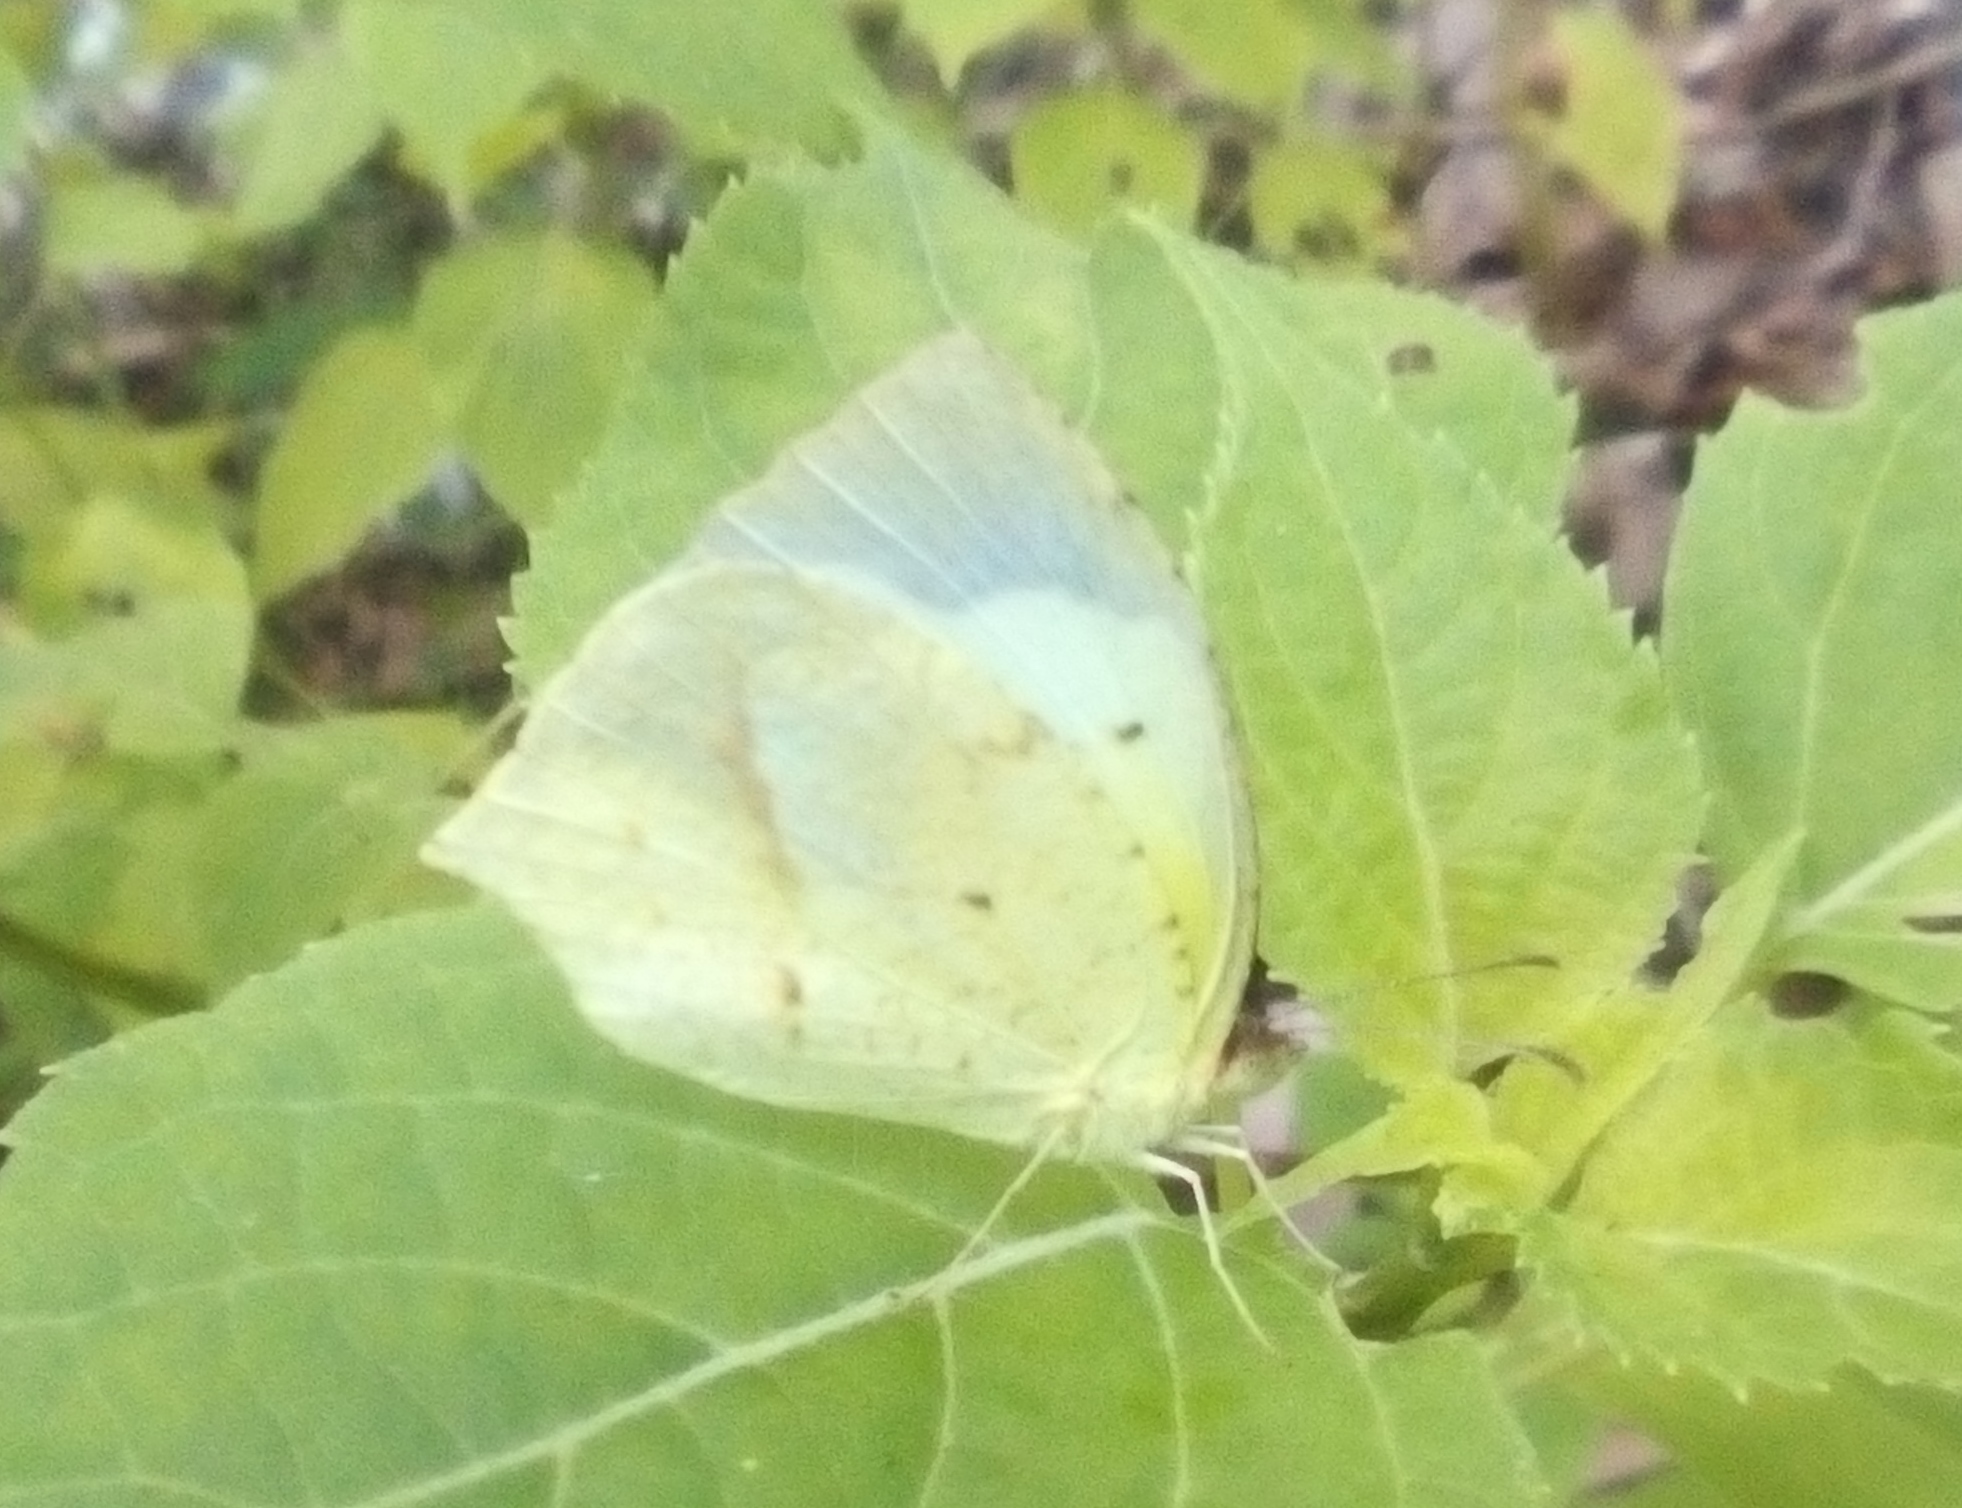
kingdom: Animalia
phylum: Arthropoda
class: Insecta
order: Lepidoptera
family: Pieridae
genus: Abaeis
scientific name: Abaeis boisduvaliana
